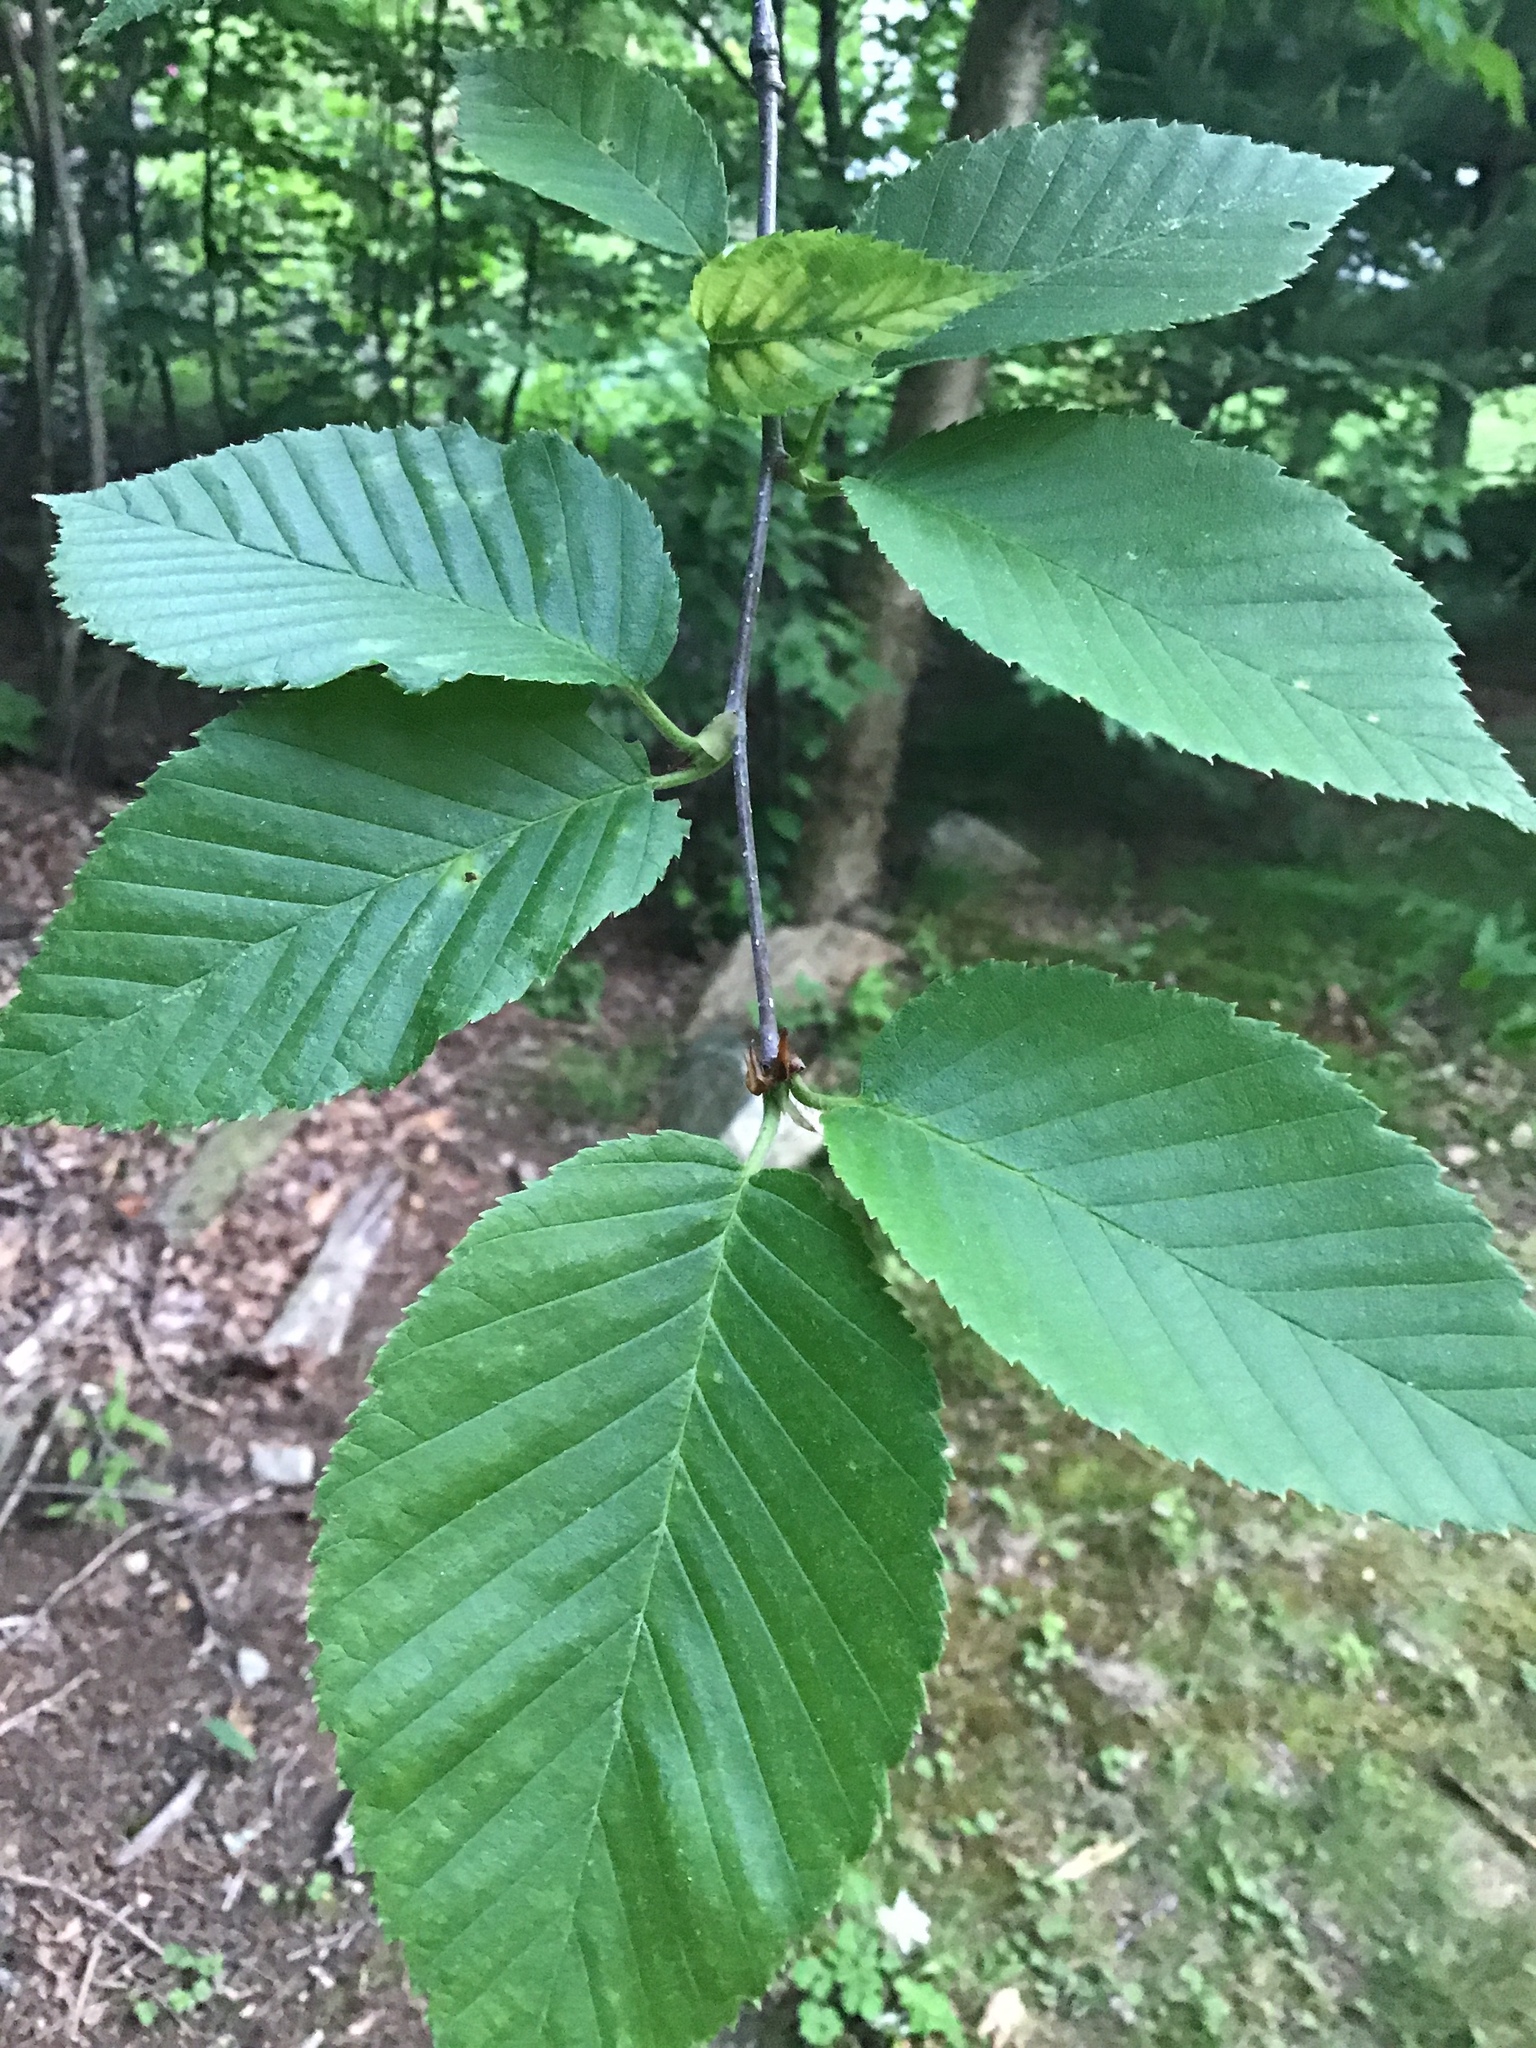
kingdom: Plantae
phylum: Tracheophyta
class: Magnoliopsida
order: Fagales
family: Betulaceae
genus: Betula
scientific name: Betula lenta
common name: Black birch
